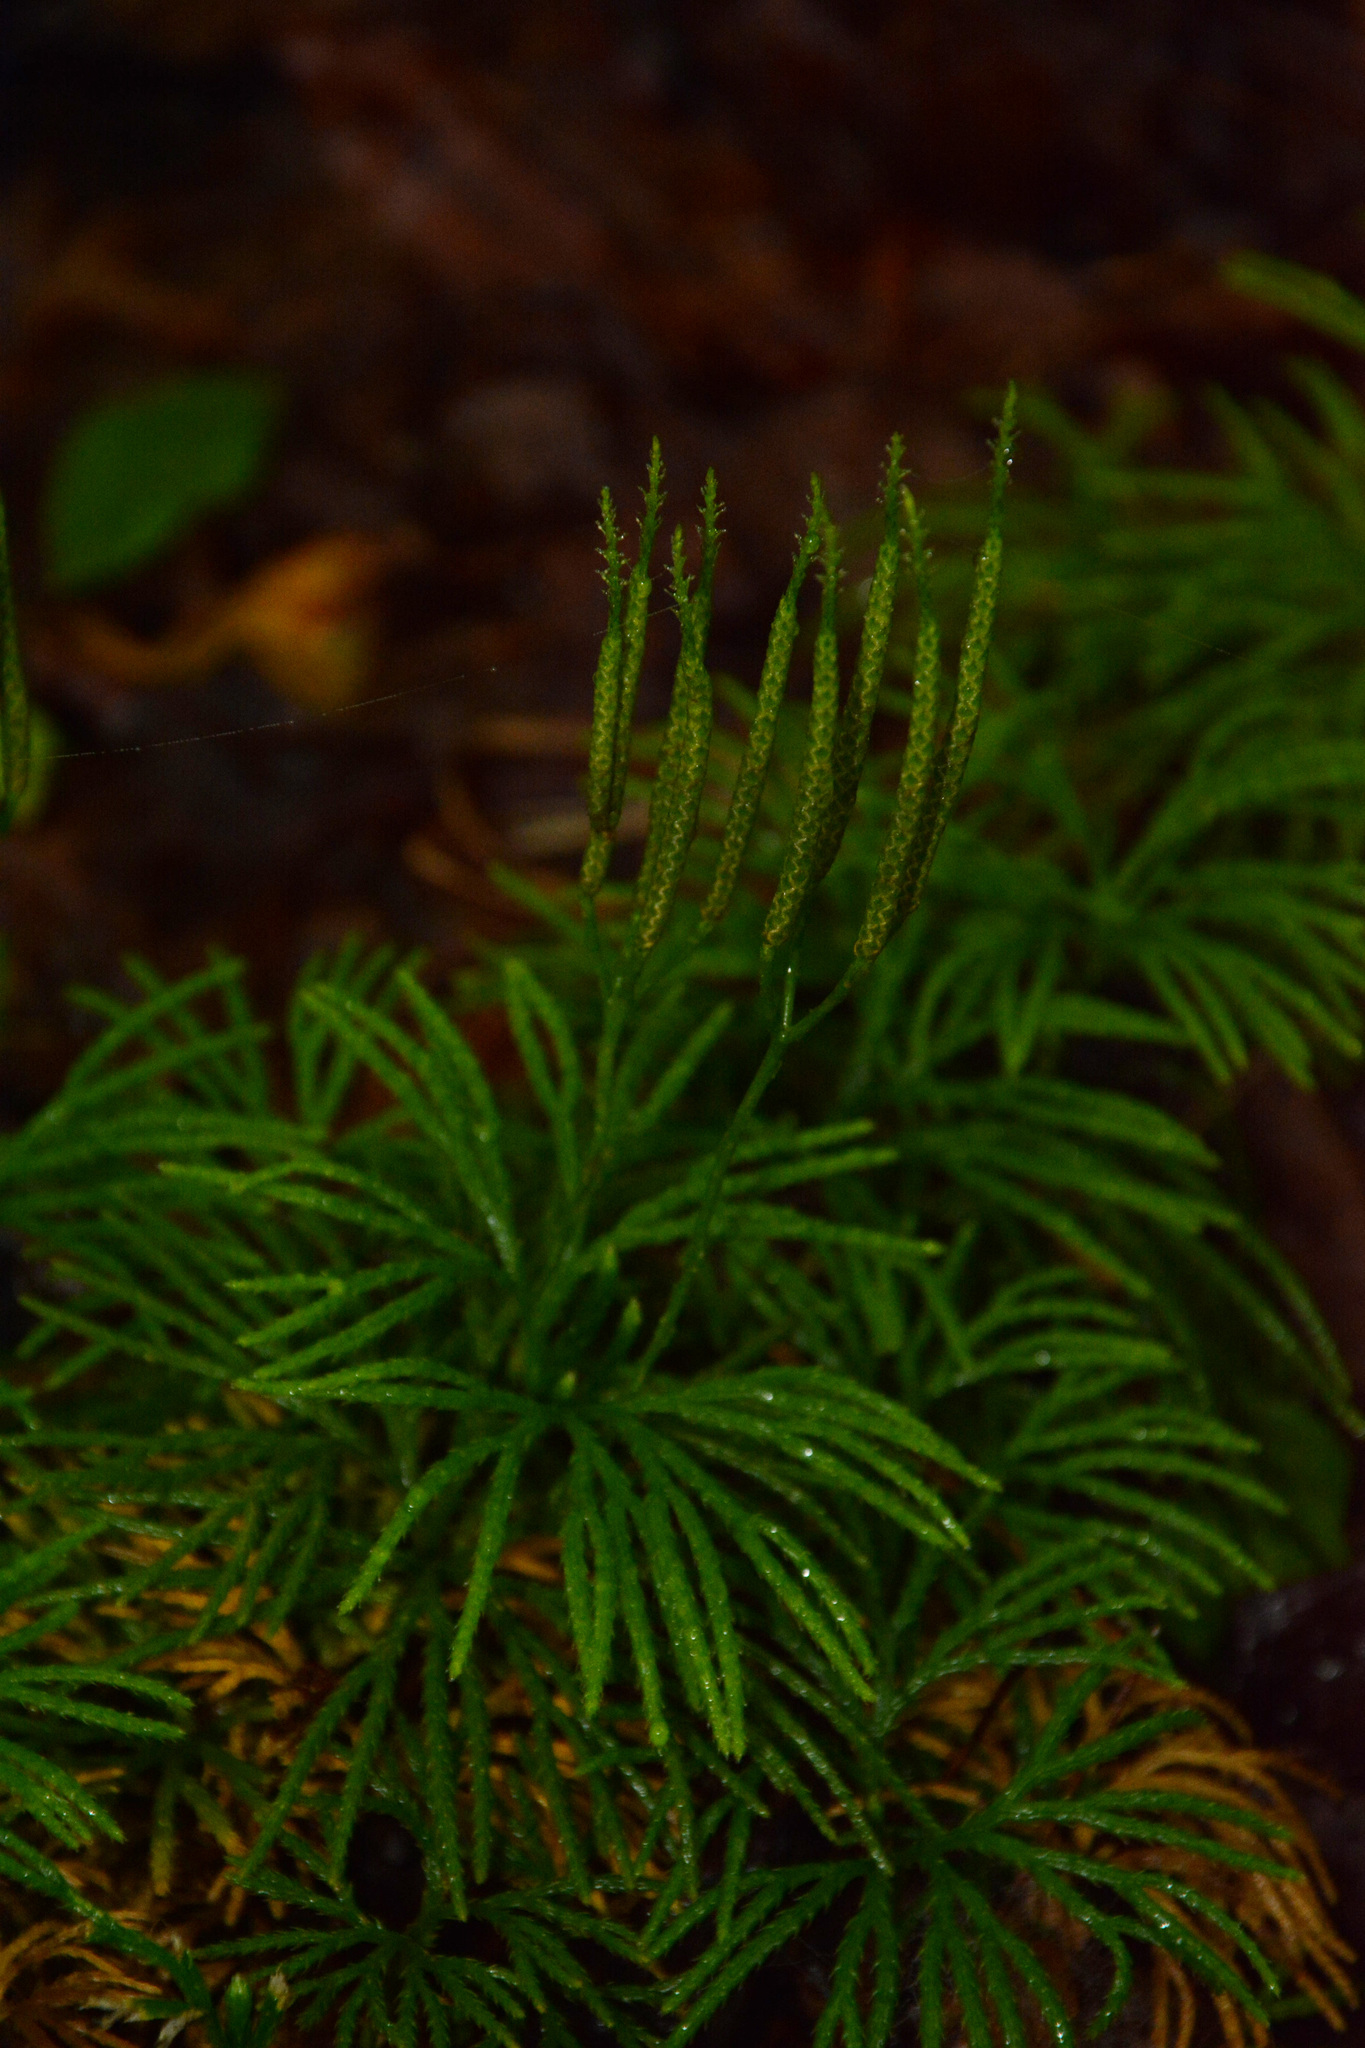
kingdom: Plantae
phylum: Tracheophyta
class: Lycopodiopsida
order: Lycopodiales
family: Lycopodiaceae
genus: Diphasiastrum
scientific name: Diphasiastrum digitatum
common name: Southern running-pine
